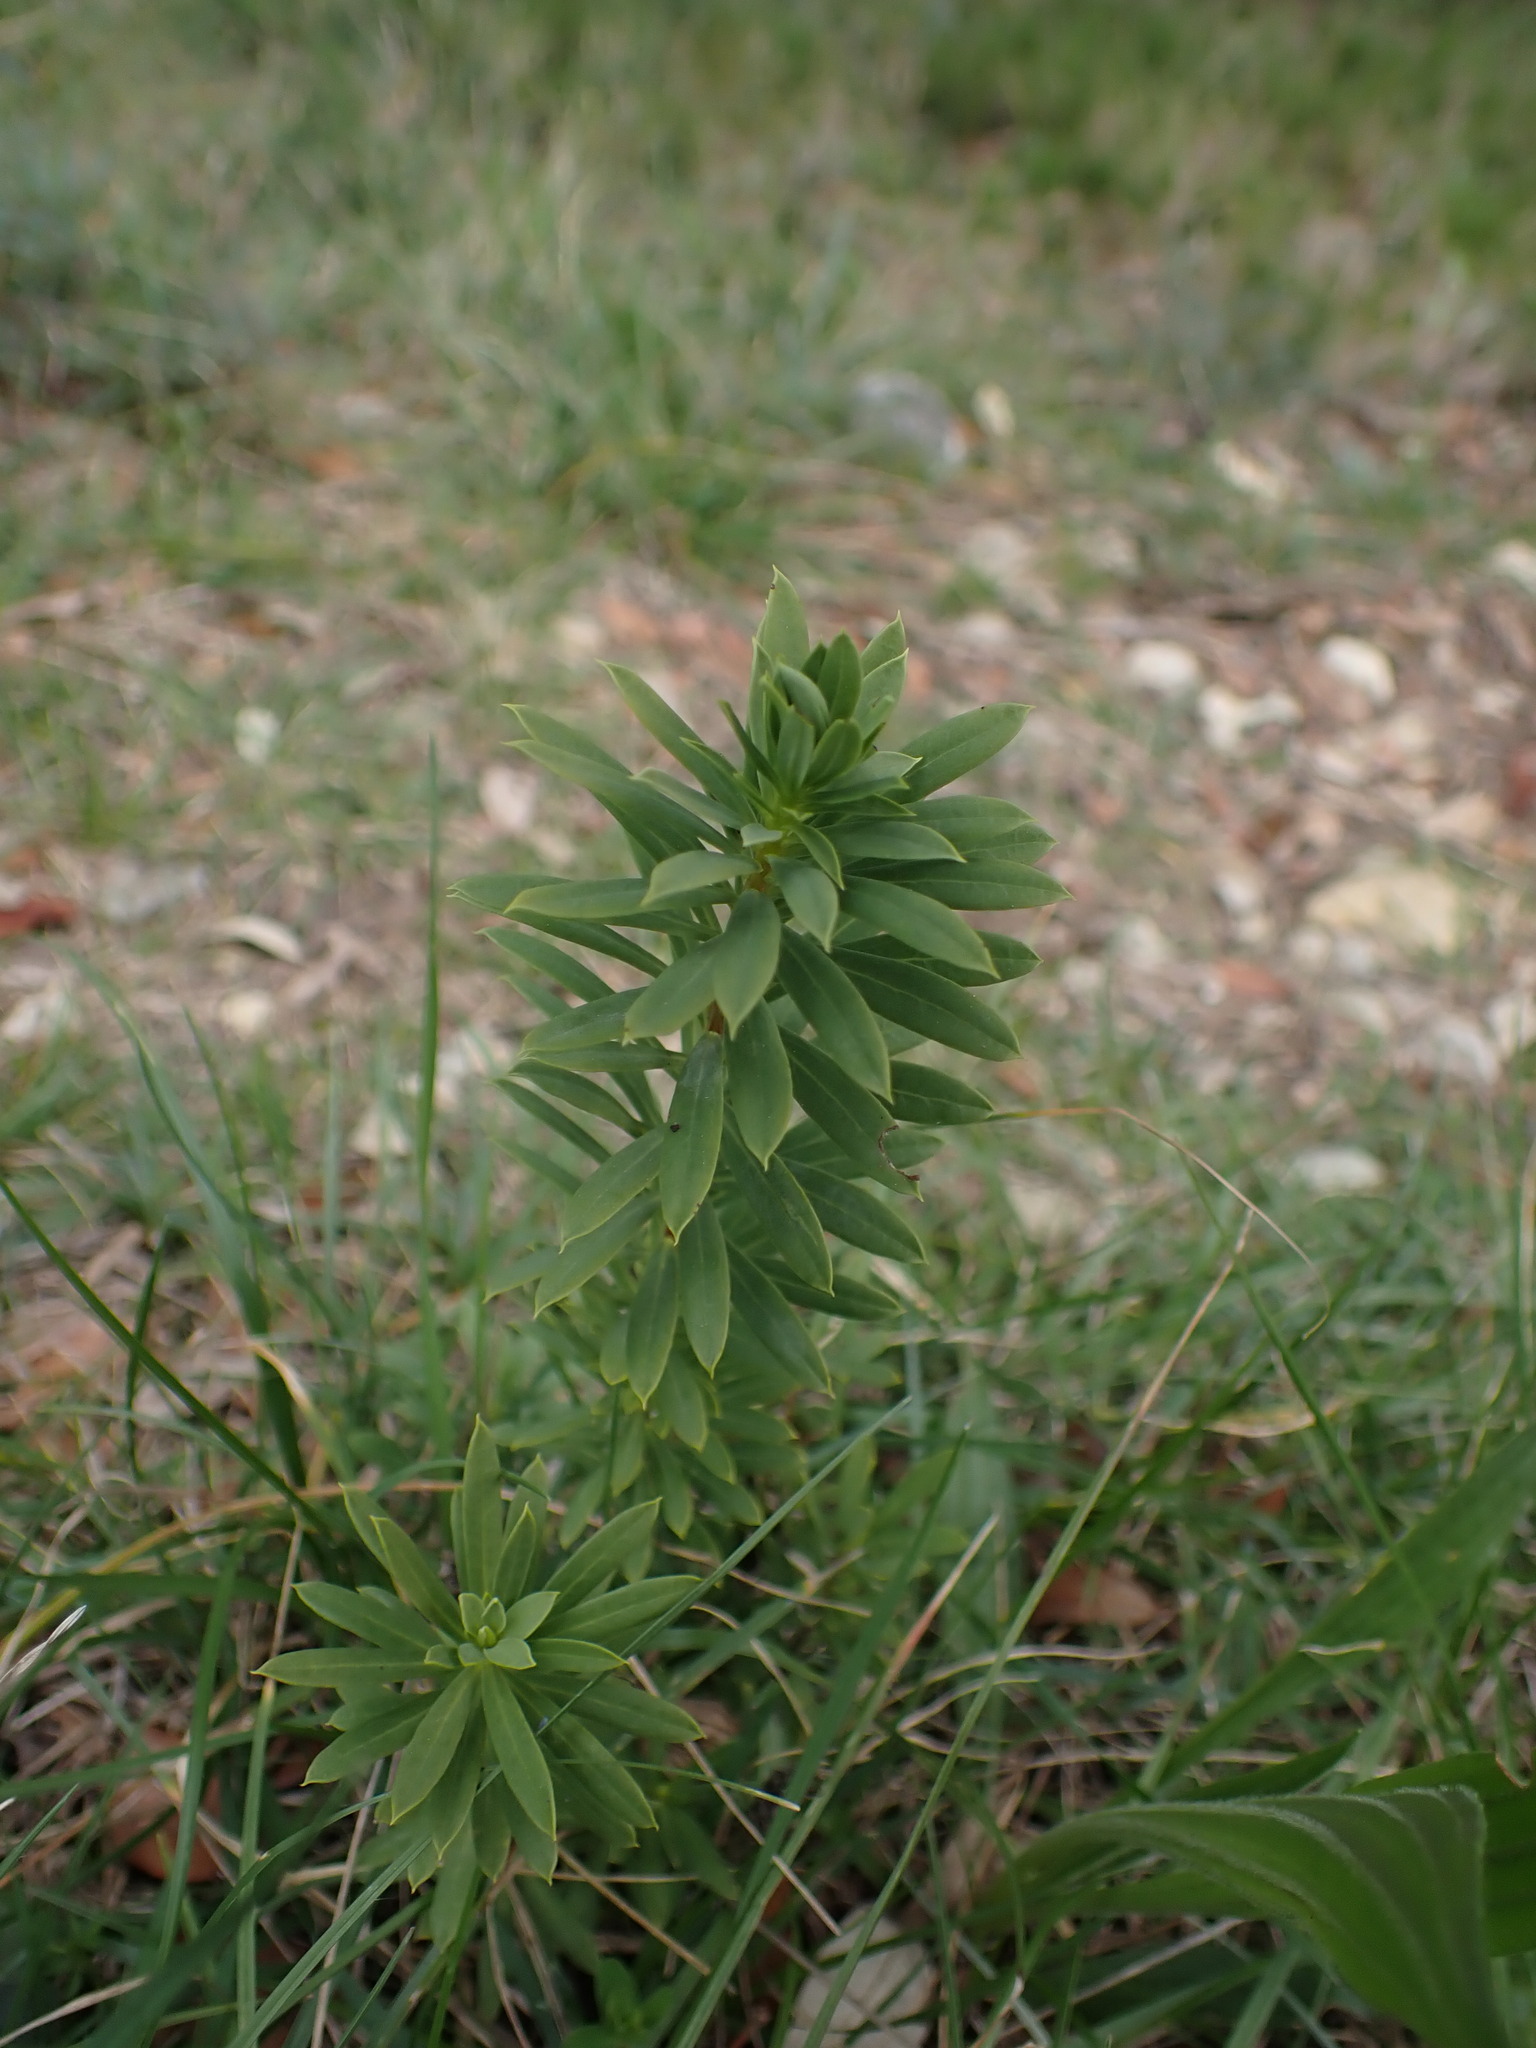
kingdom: Plantae
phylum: Tracheophyta
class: Magnoliopsida
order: Malvales
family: Thymelaeaceae
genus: Daphne
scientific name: Daphne gnidium
